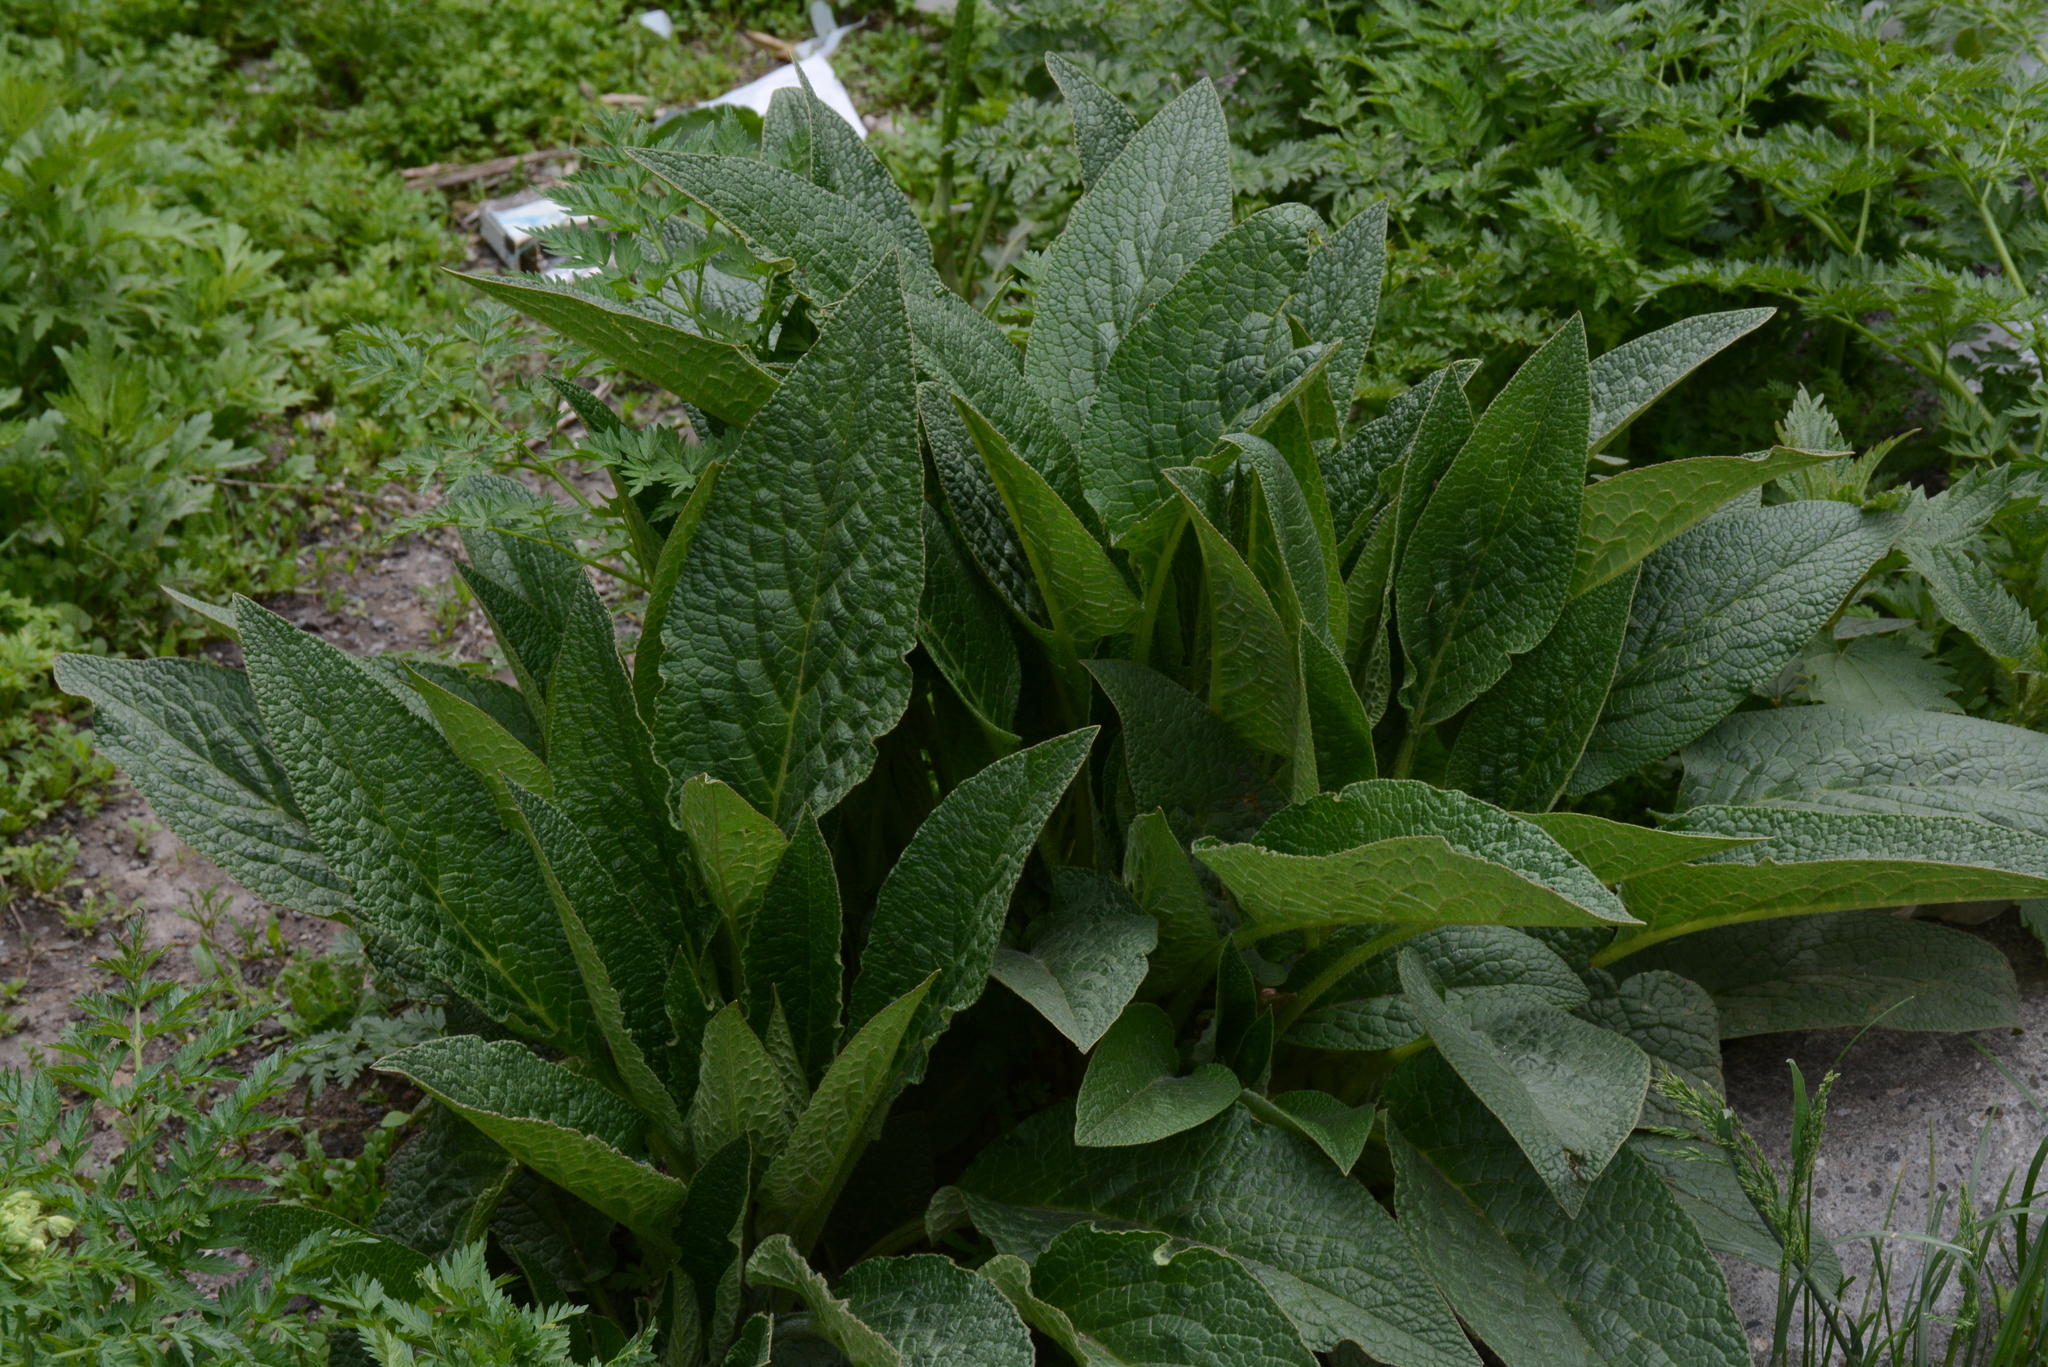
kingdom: Plantae
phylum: Tracheophyta
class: Magnoliopsida
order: Boraginales
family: Boraginaceae
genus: Symphytum
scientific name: Symphytum asperum
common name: Prickly comfrey
